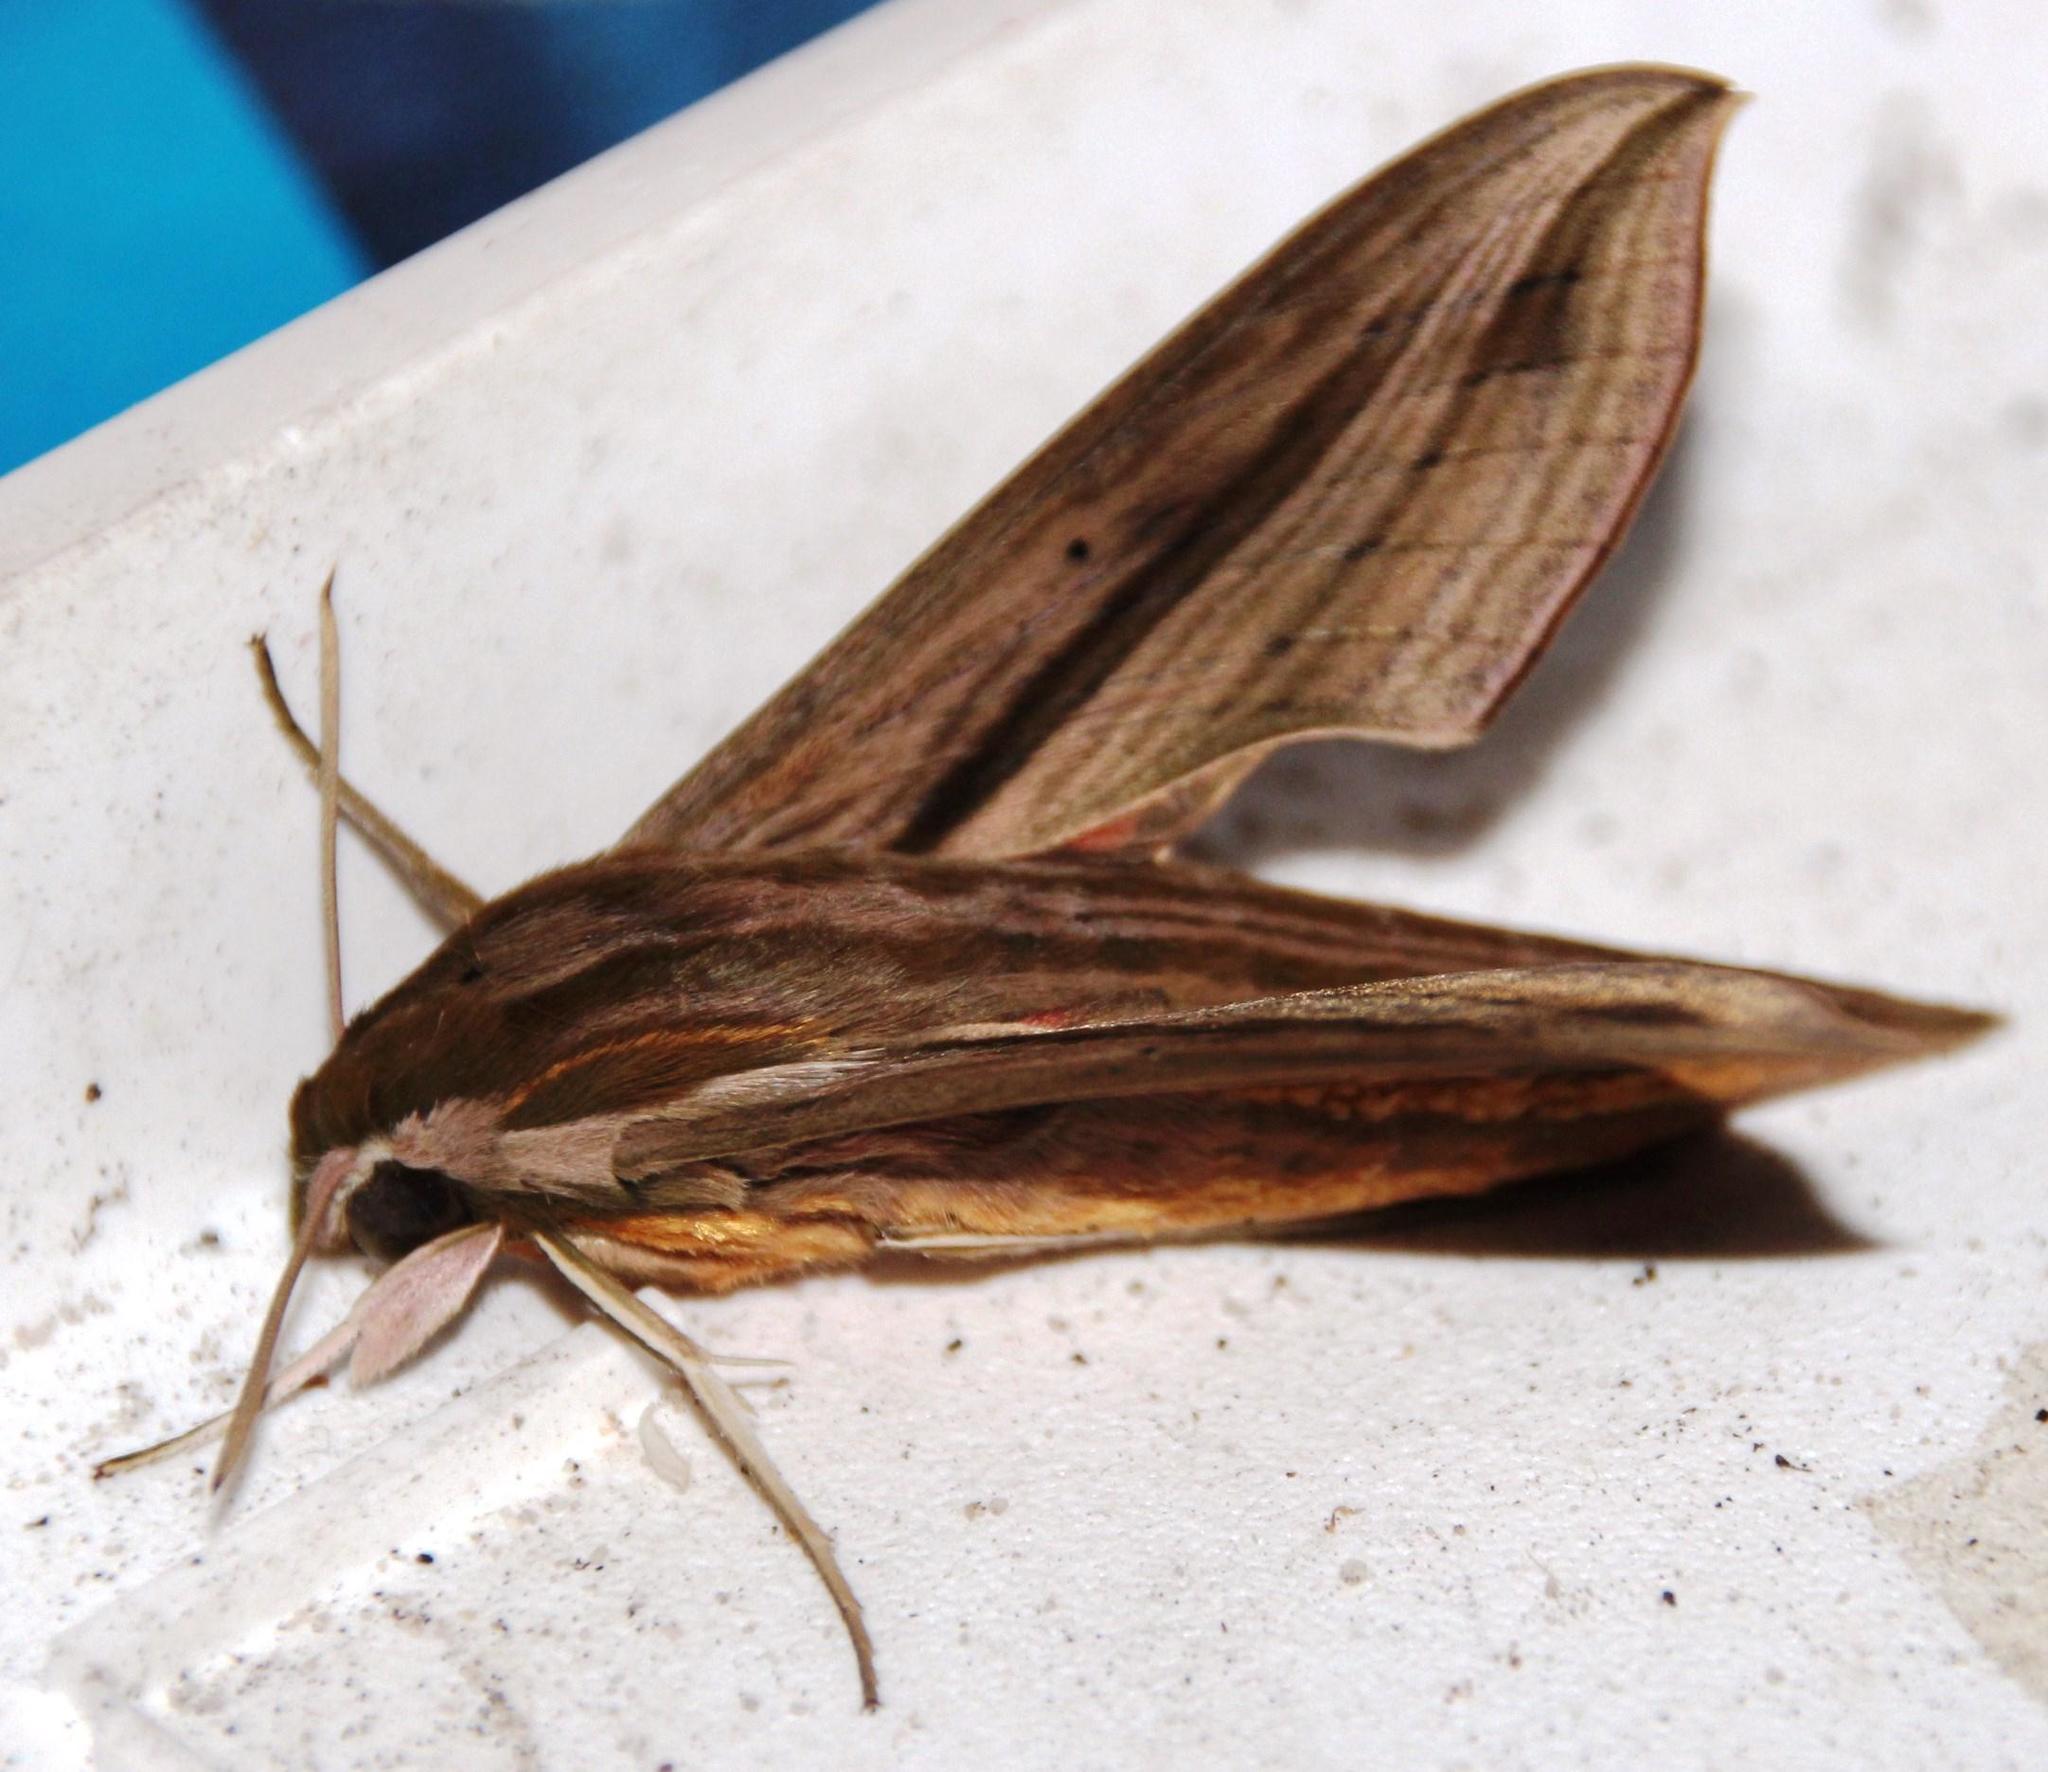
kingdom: Animalia
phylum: Arthropoda
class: Insecta
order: Lepidoptera
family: Sphingidae
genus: Hippotion
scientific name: Hippotion eson
